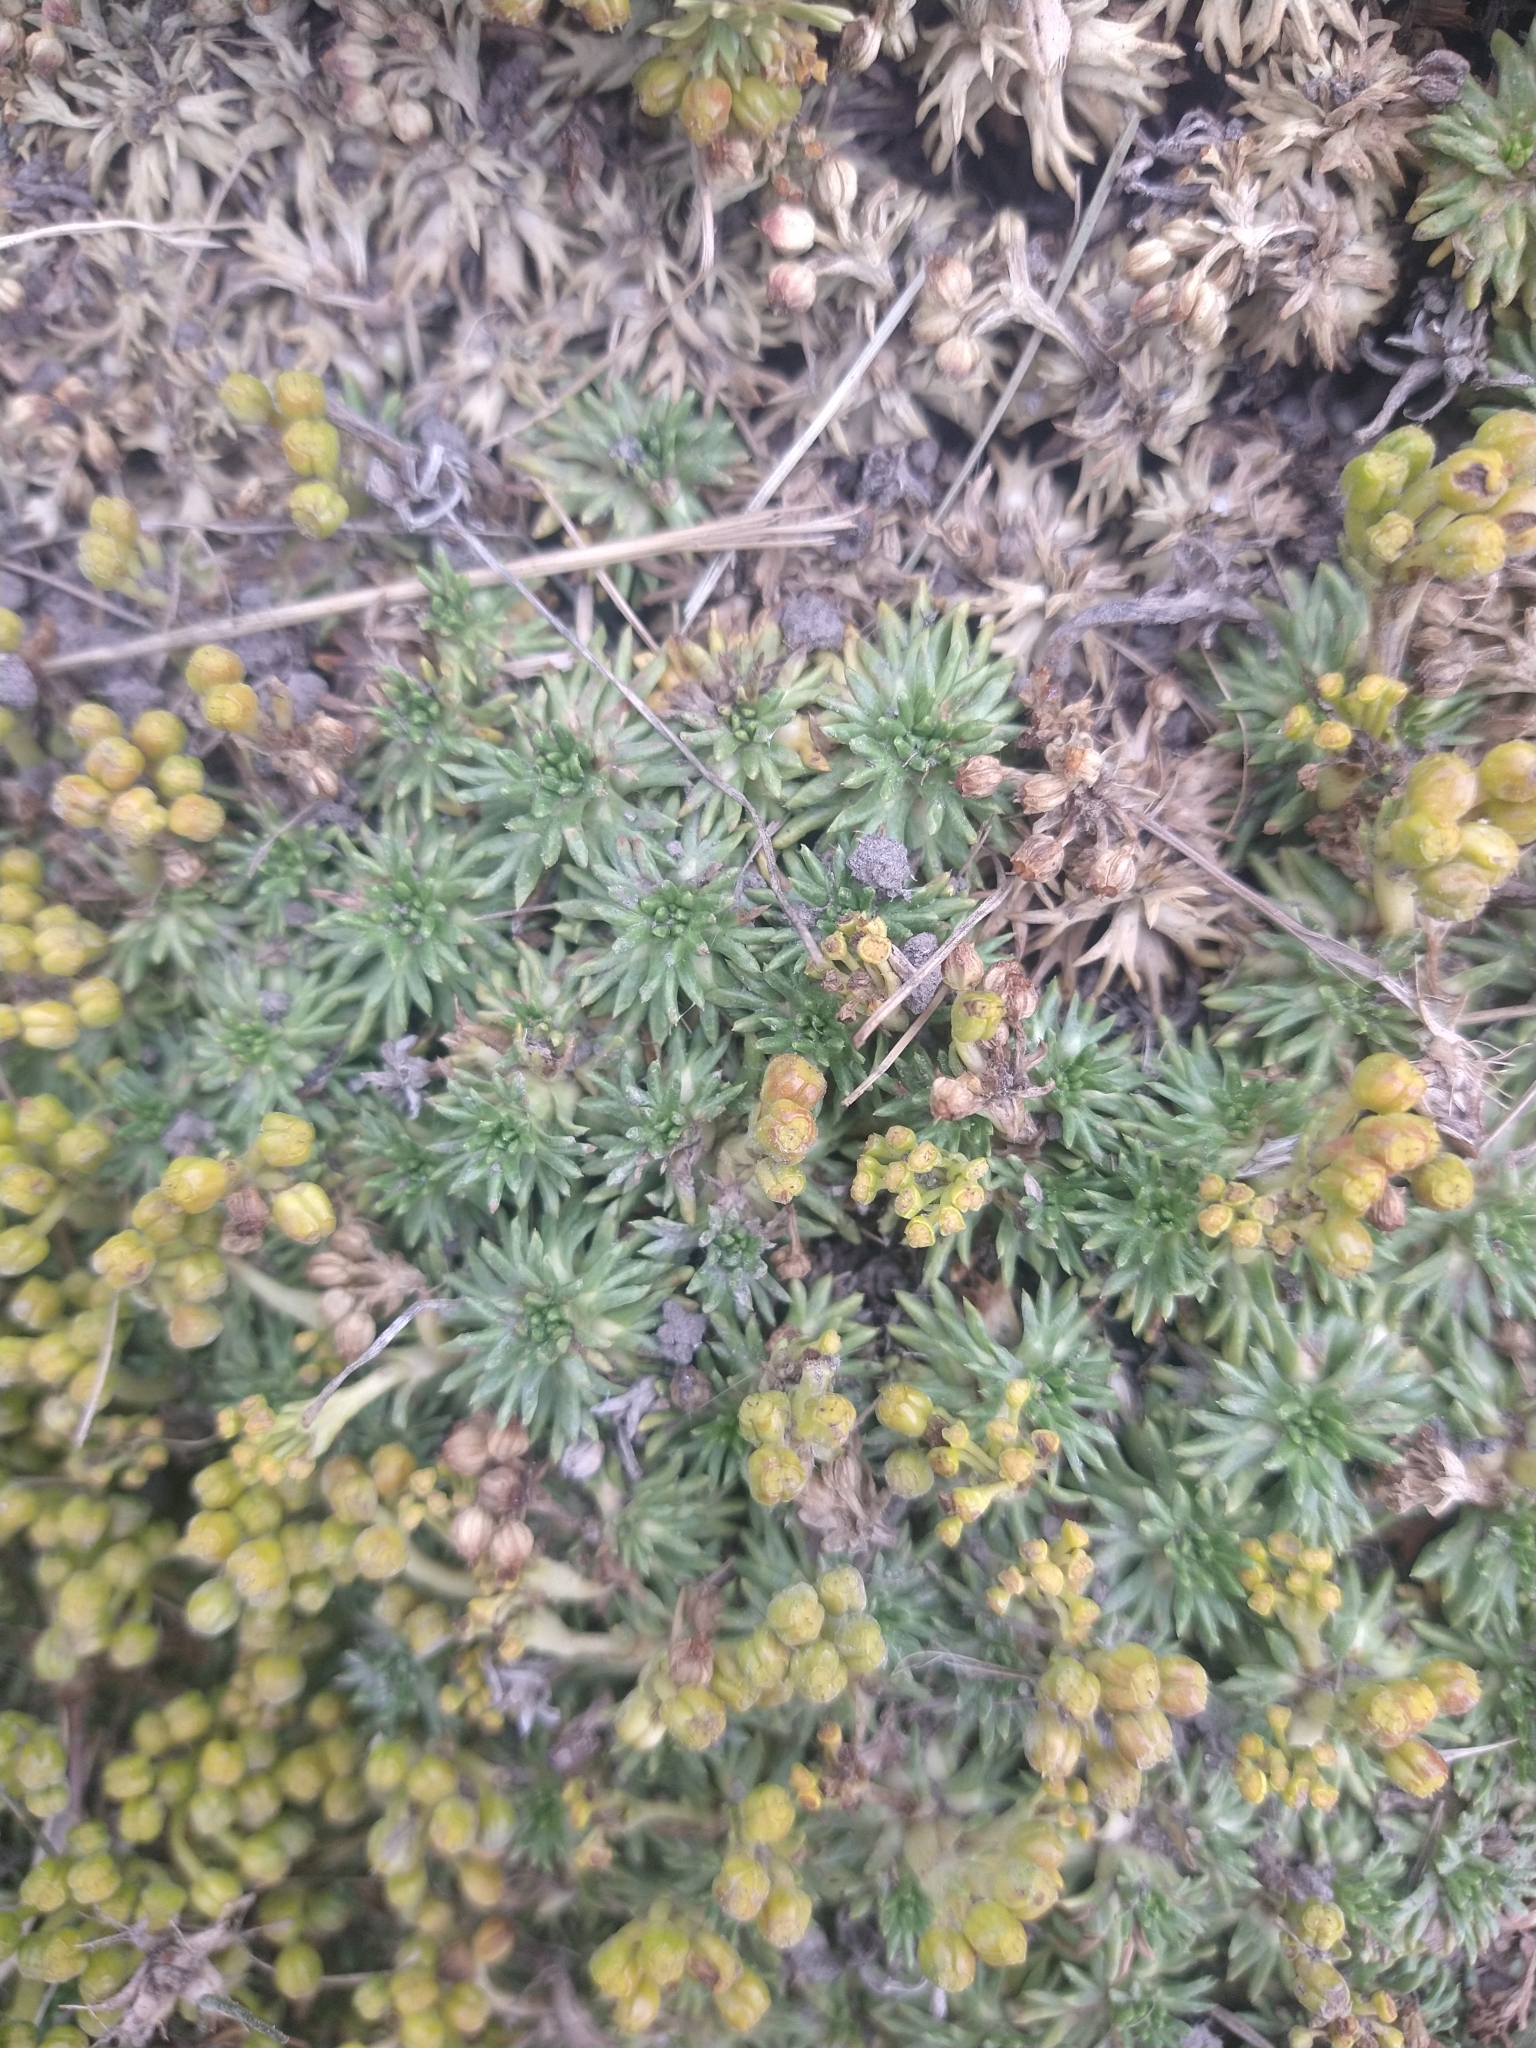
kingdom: Plantae
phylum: Tracheophyta
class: Magnoliopsida
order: Apiales
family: Apiaceae
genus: Azorella
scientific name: Azorella trifurcata
